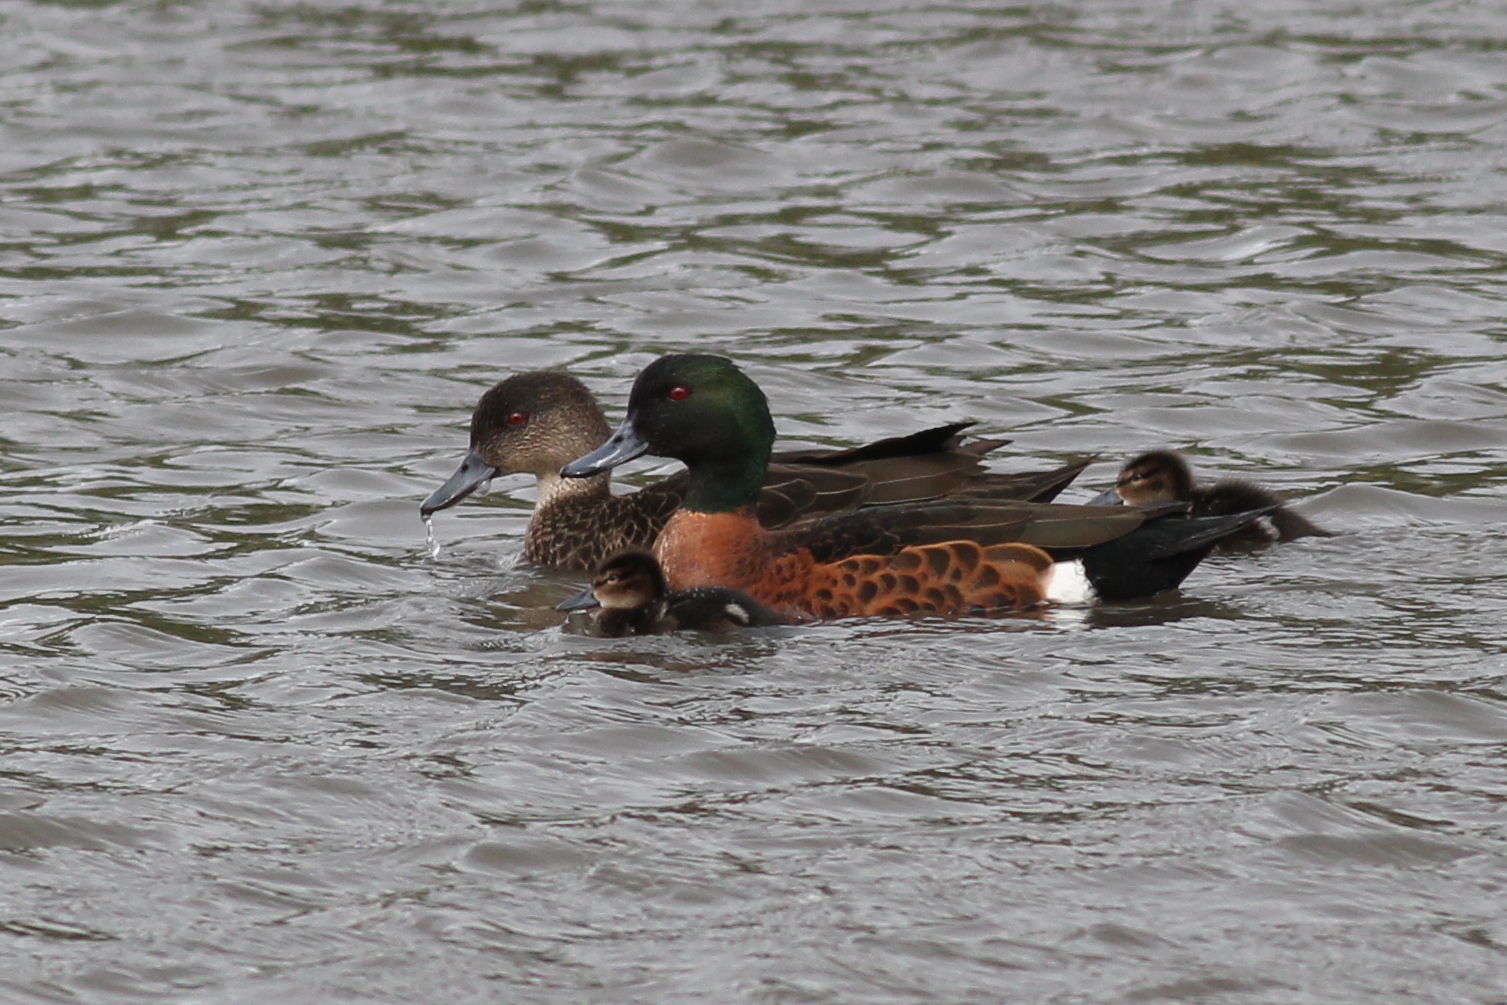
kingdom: Animalia
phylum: Chordata
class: Aves
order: Anseriformes
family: Anatidae
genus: Anas
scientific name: Anas castanea
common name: Chestnut teal
